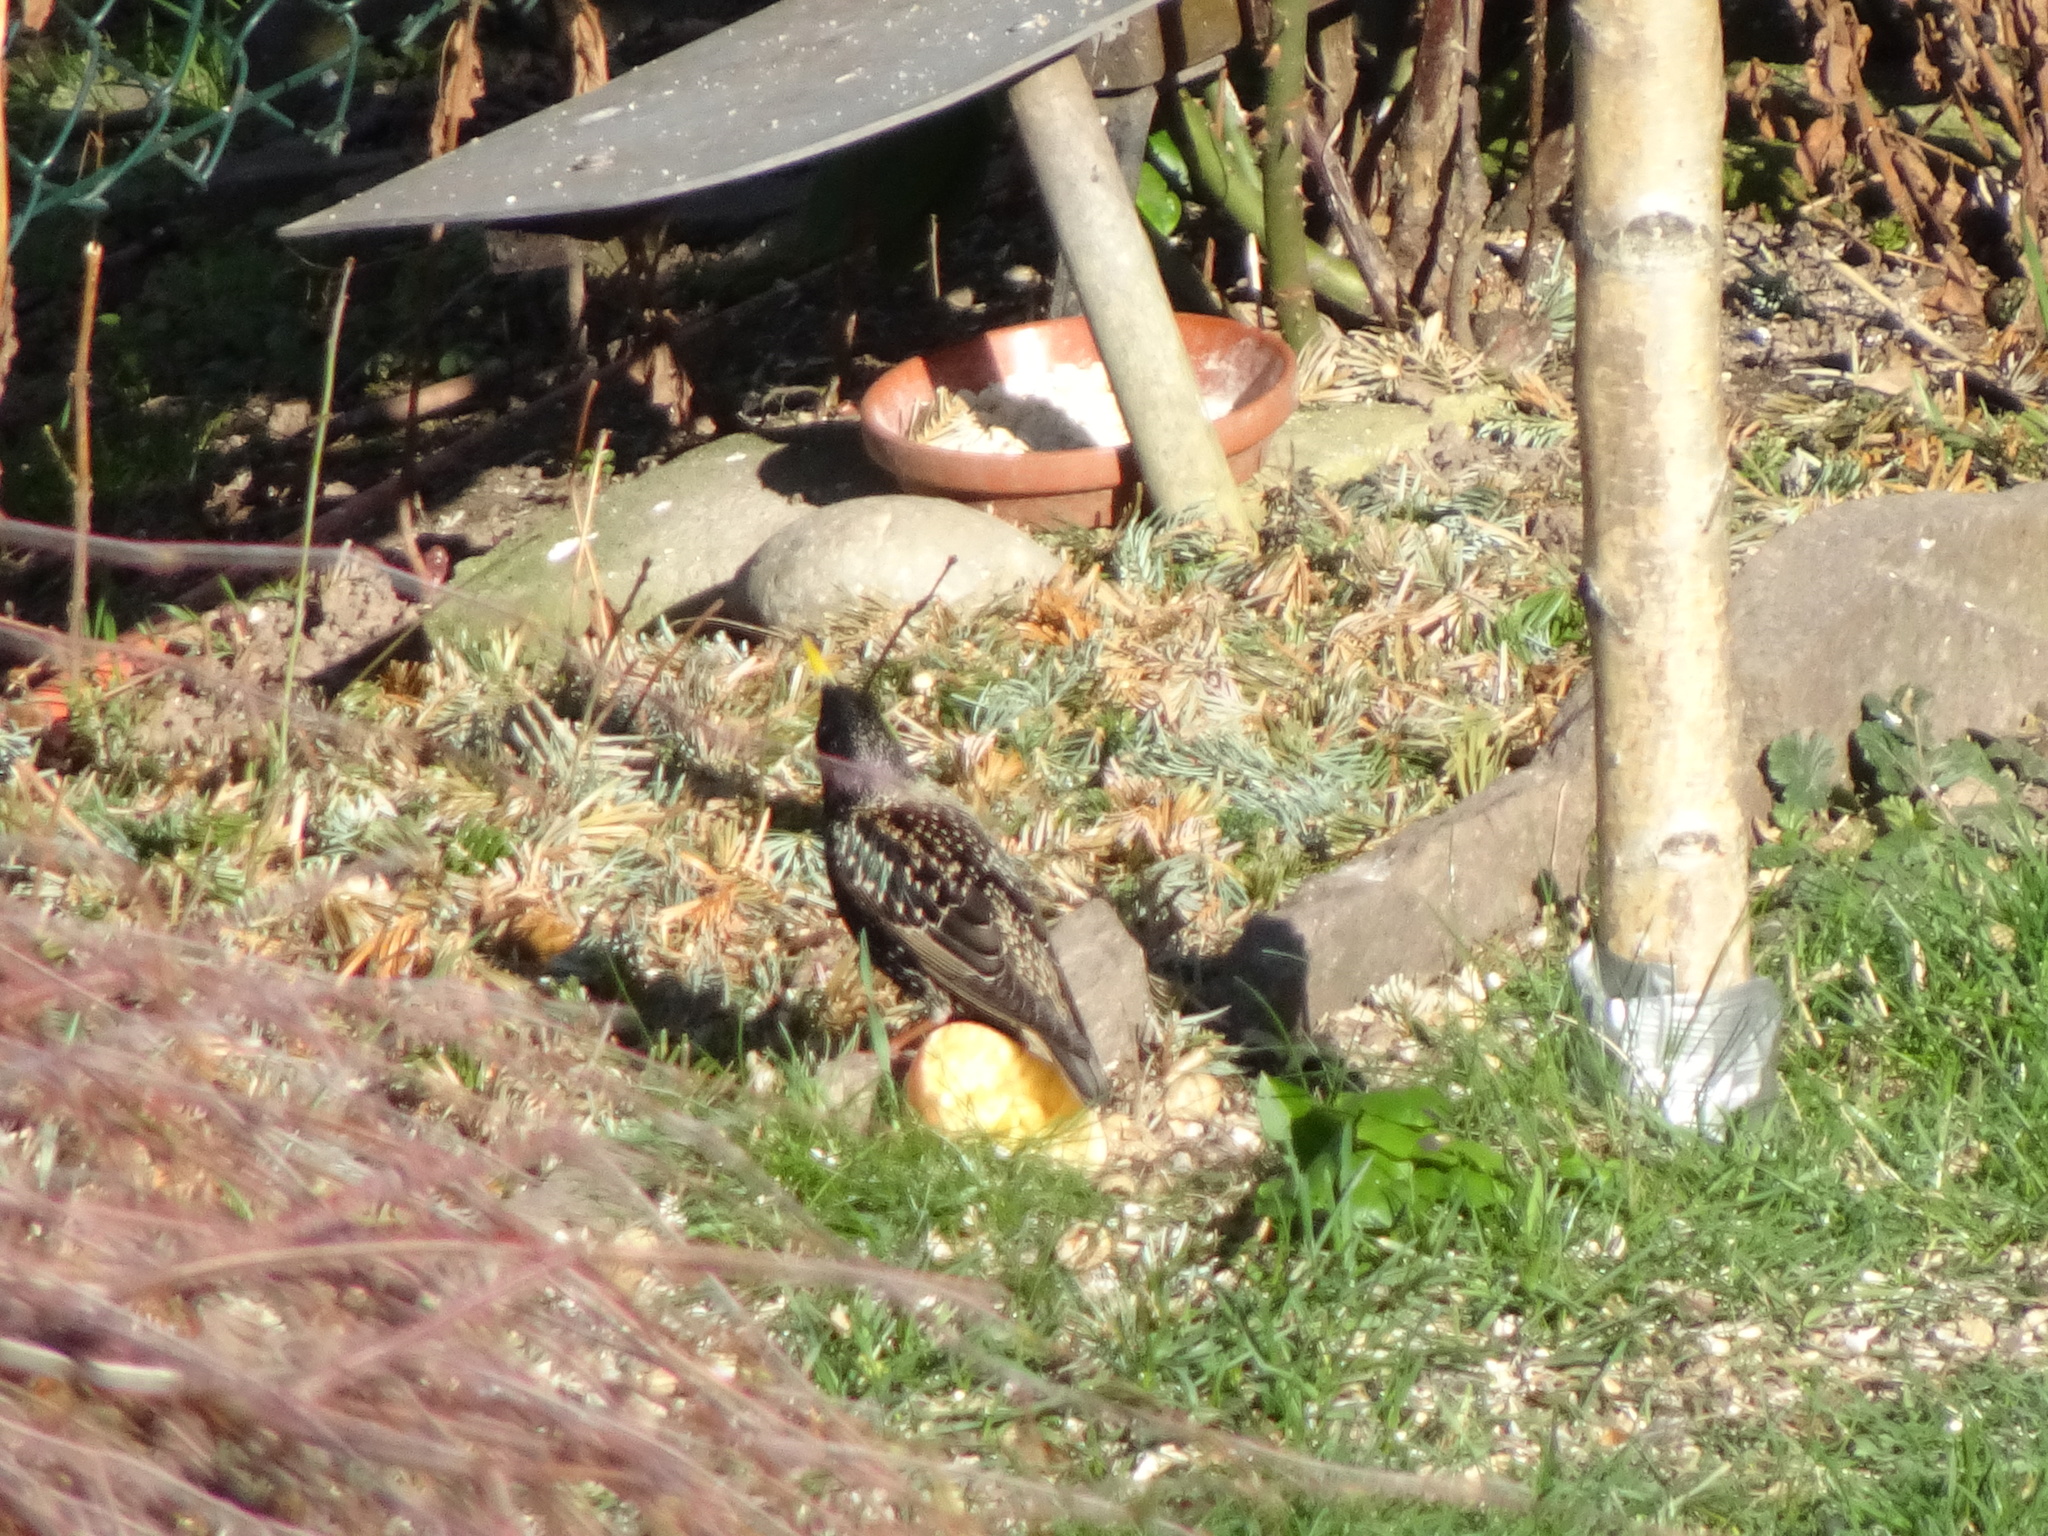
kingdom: Animalia
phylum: Chordata
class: Aves
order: Passeriformes
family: Sturnidae
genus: Sturnus
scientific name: Sturnus vulgaris
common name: Common starling
